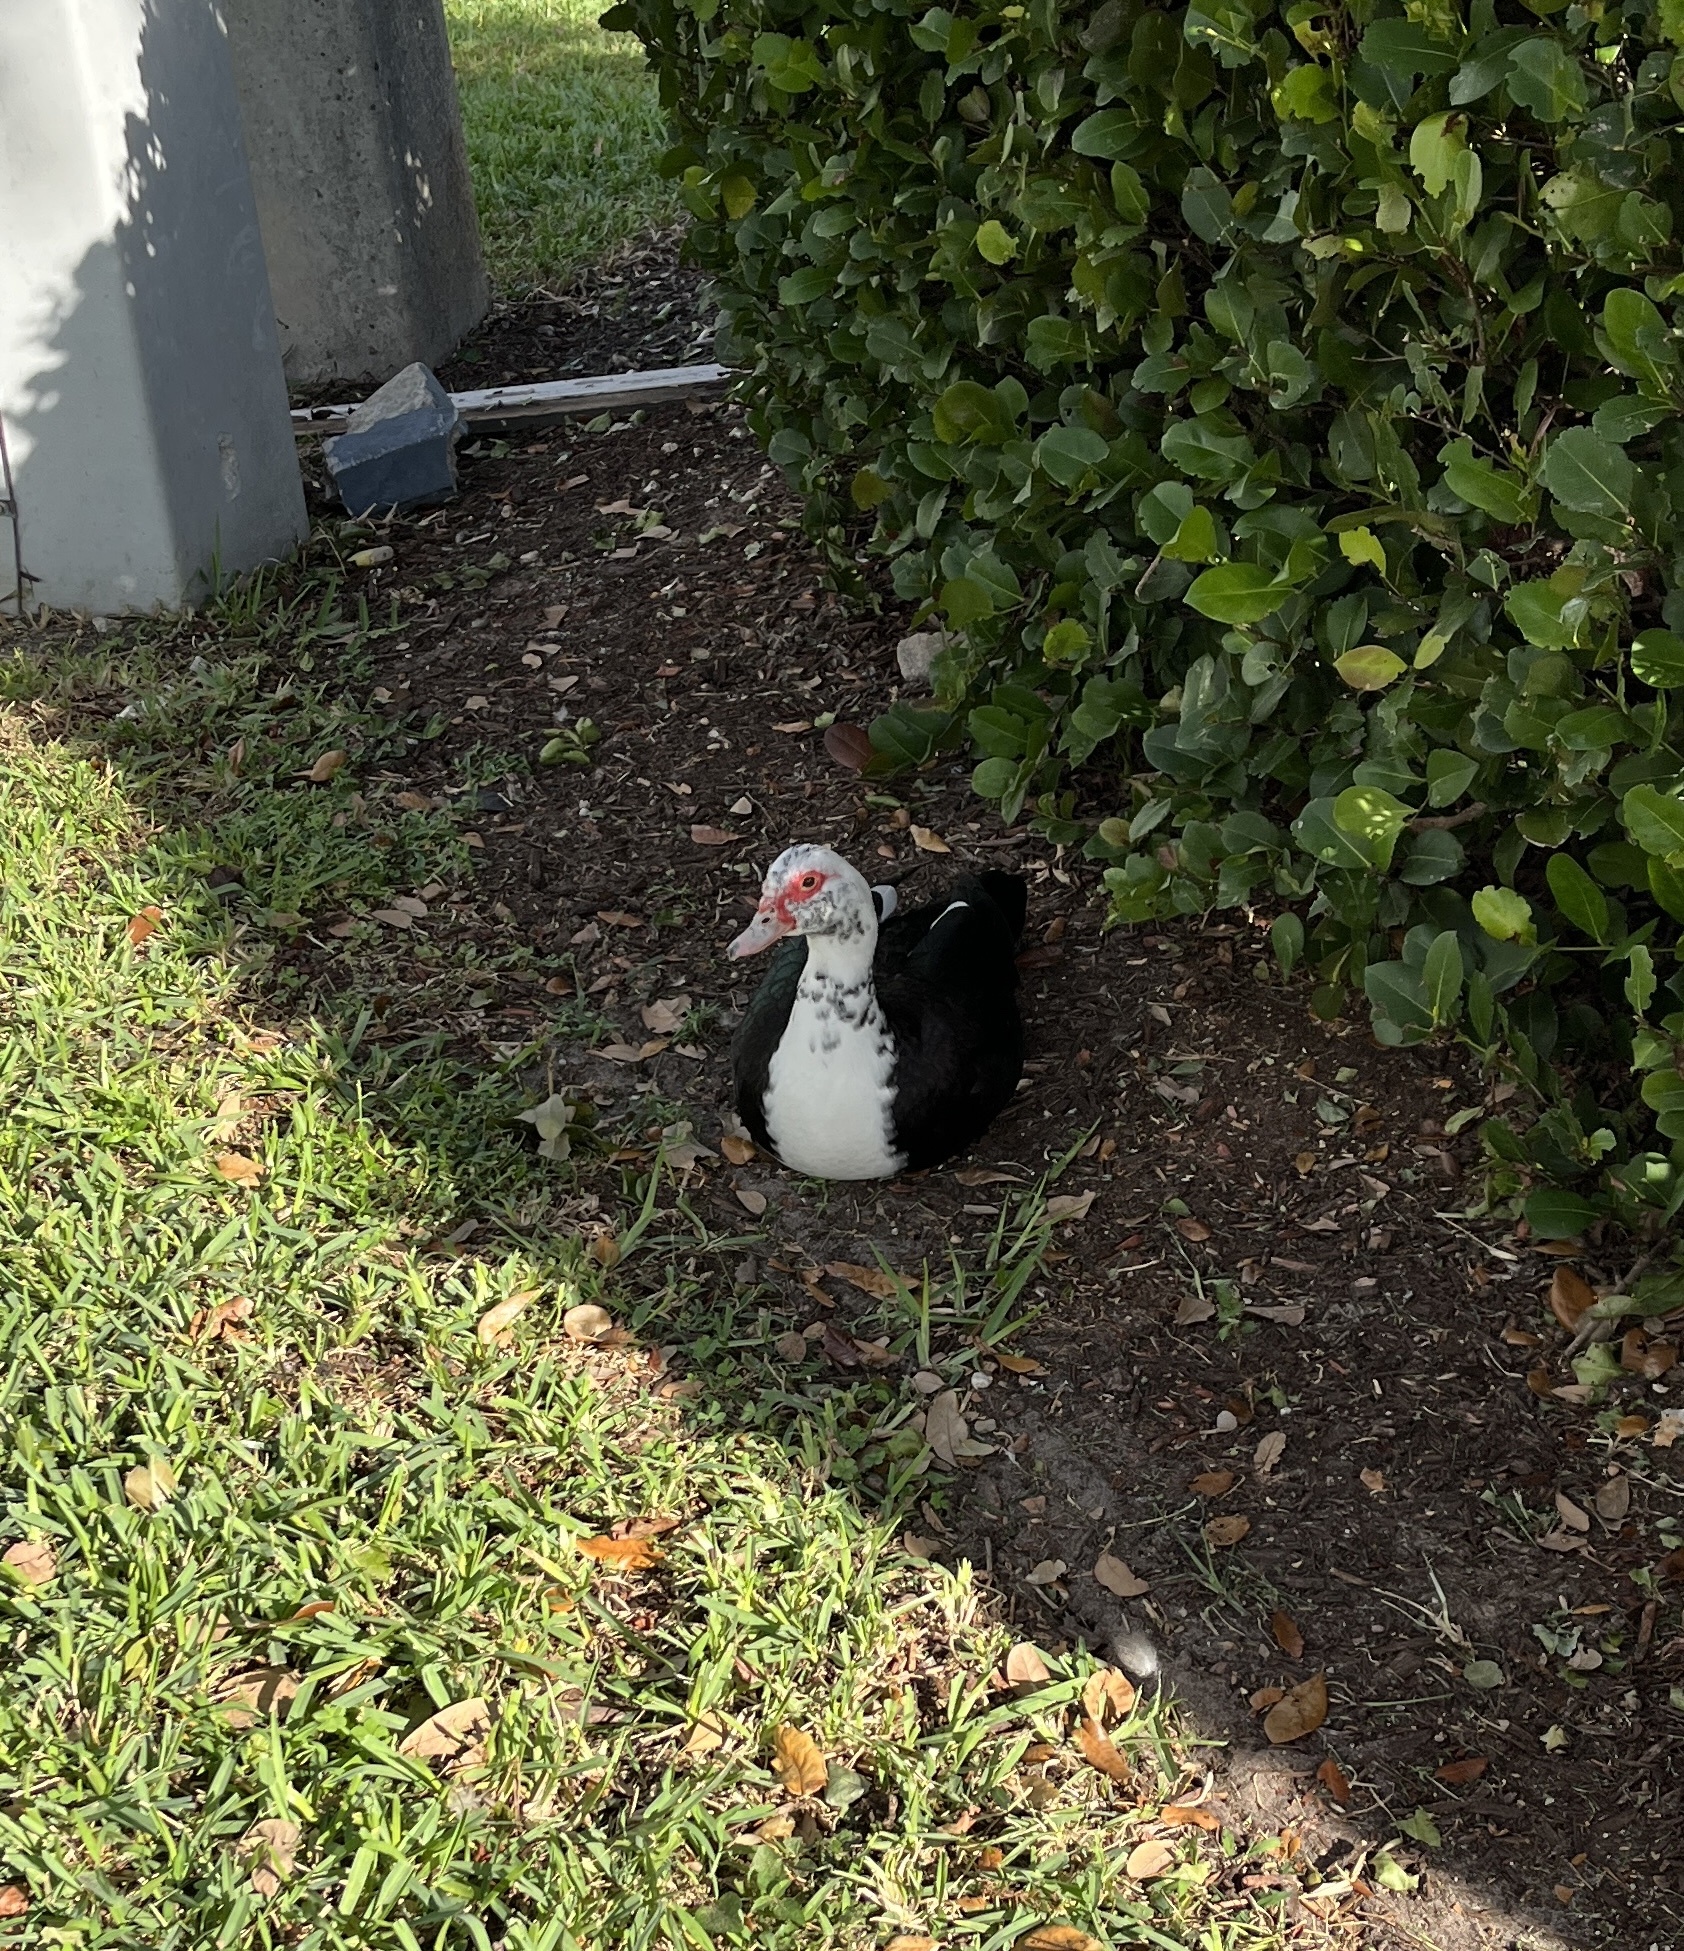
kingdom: Animalia
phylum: Chordata
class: Aves
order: Anseriformes
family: Anatidae
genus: Cairina
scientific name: Cairina moschata
